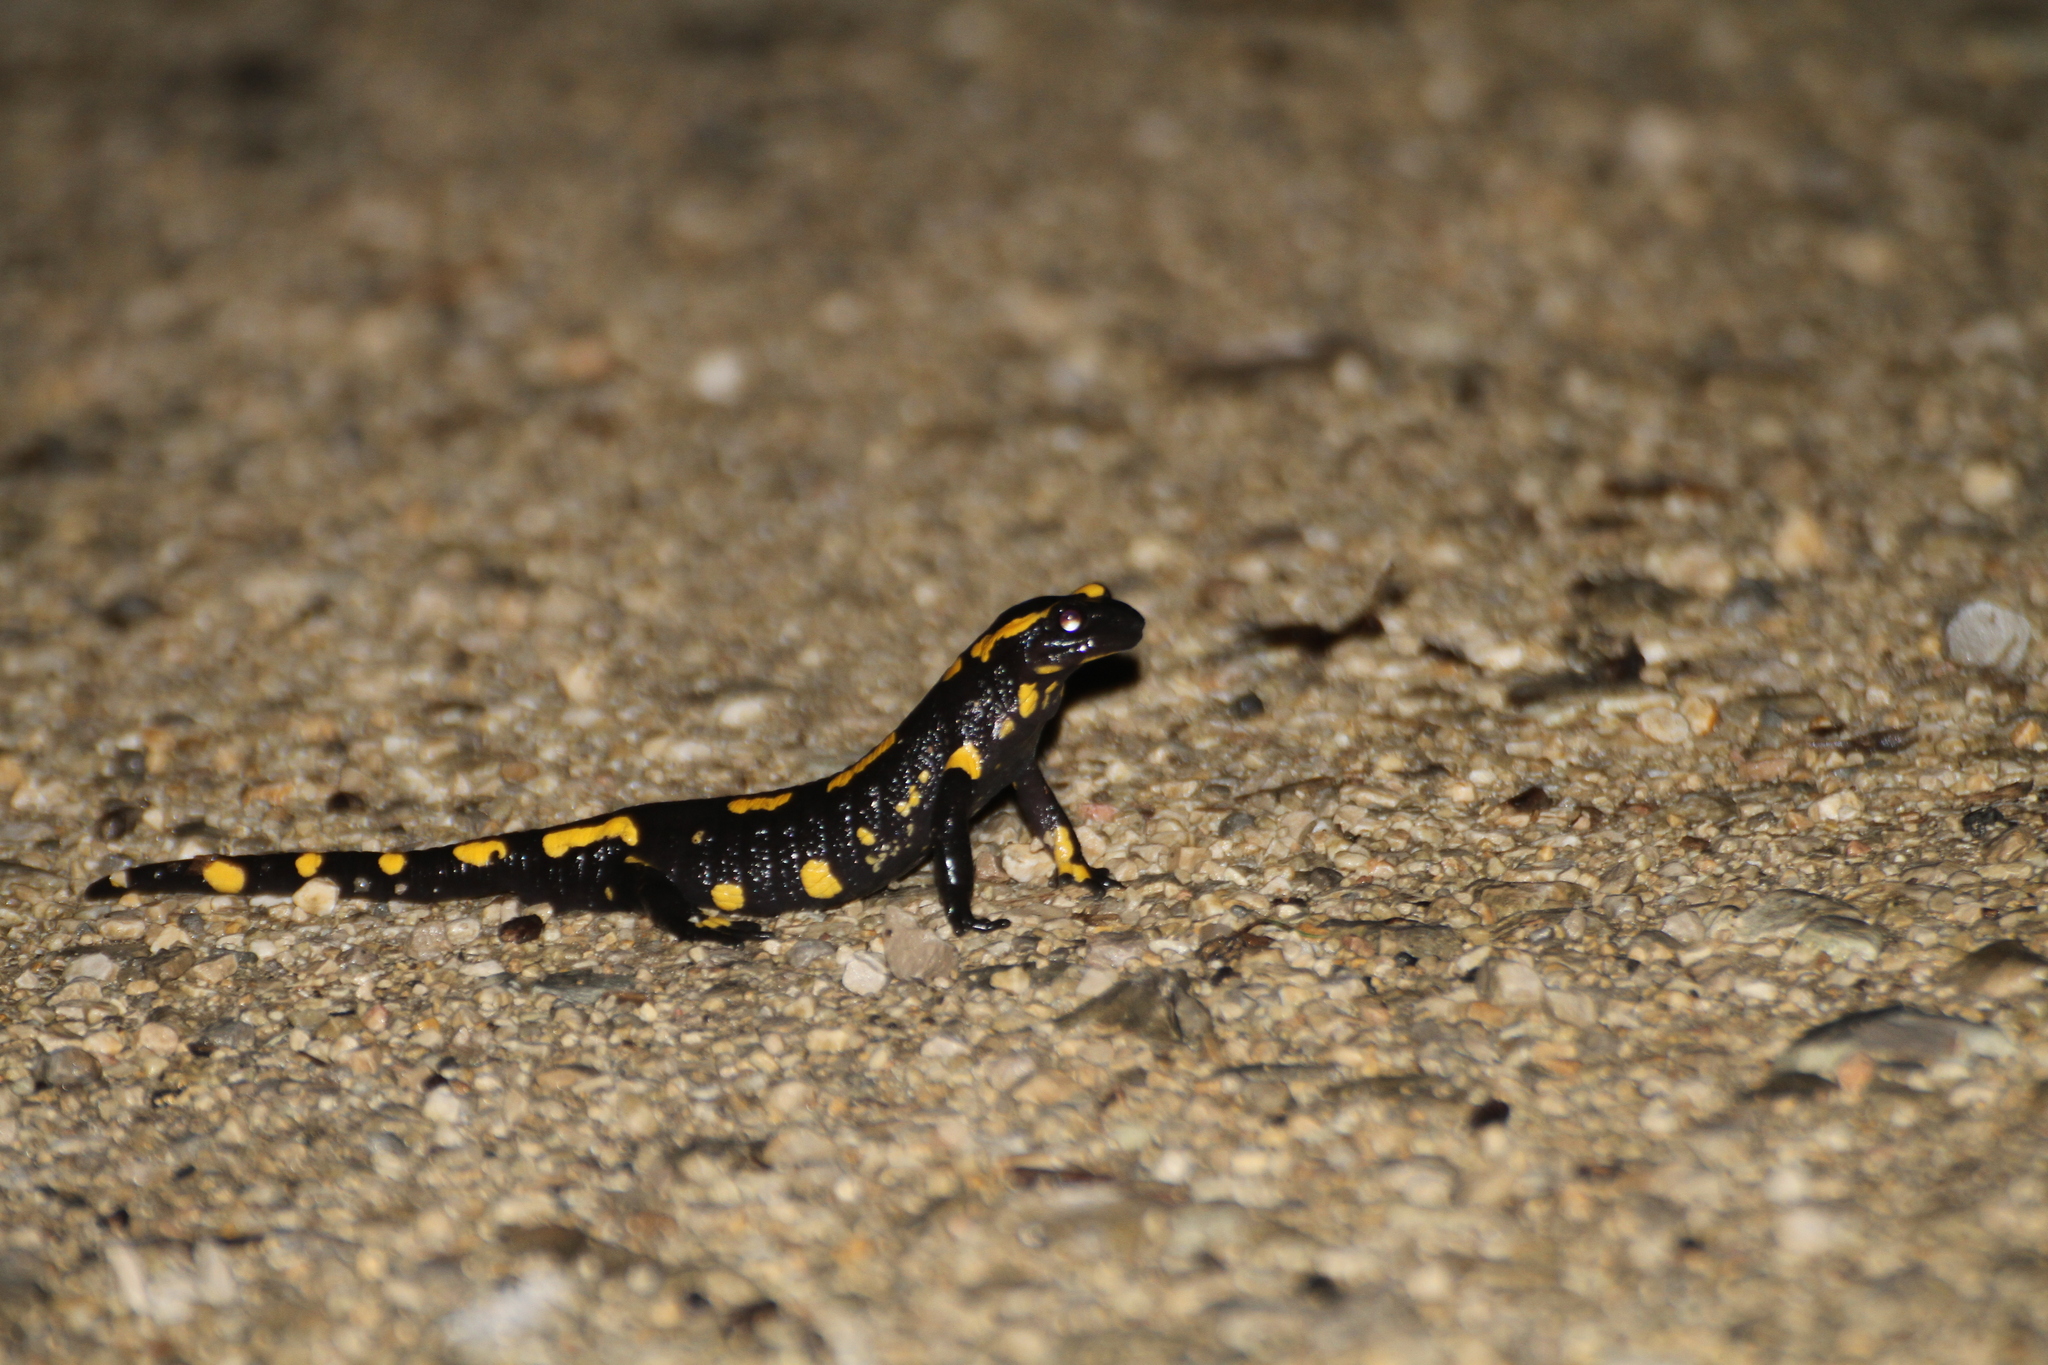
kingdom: Animalia
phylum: Chordata
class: Amphibia
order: Caudata
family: Salamandridae
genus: Salamandra
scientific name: Salamandra salamandra
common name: Fire salamander
